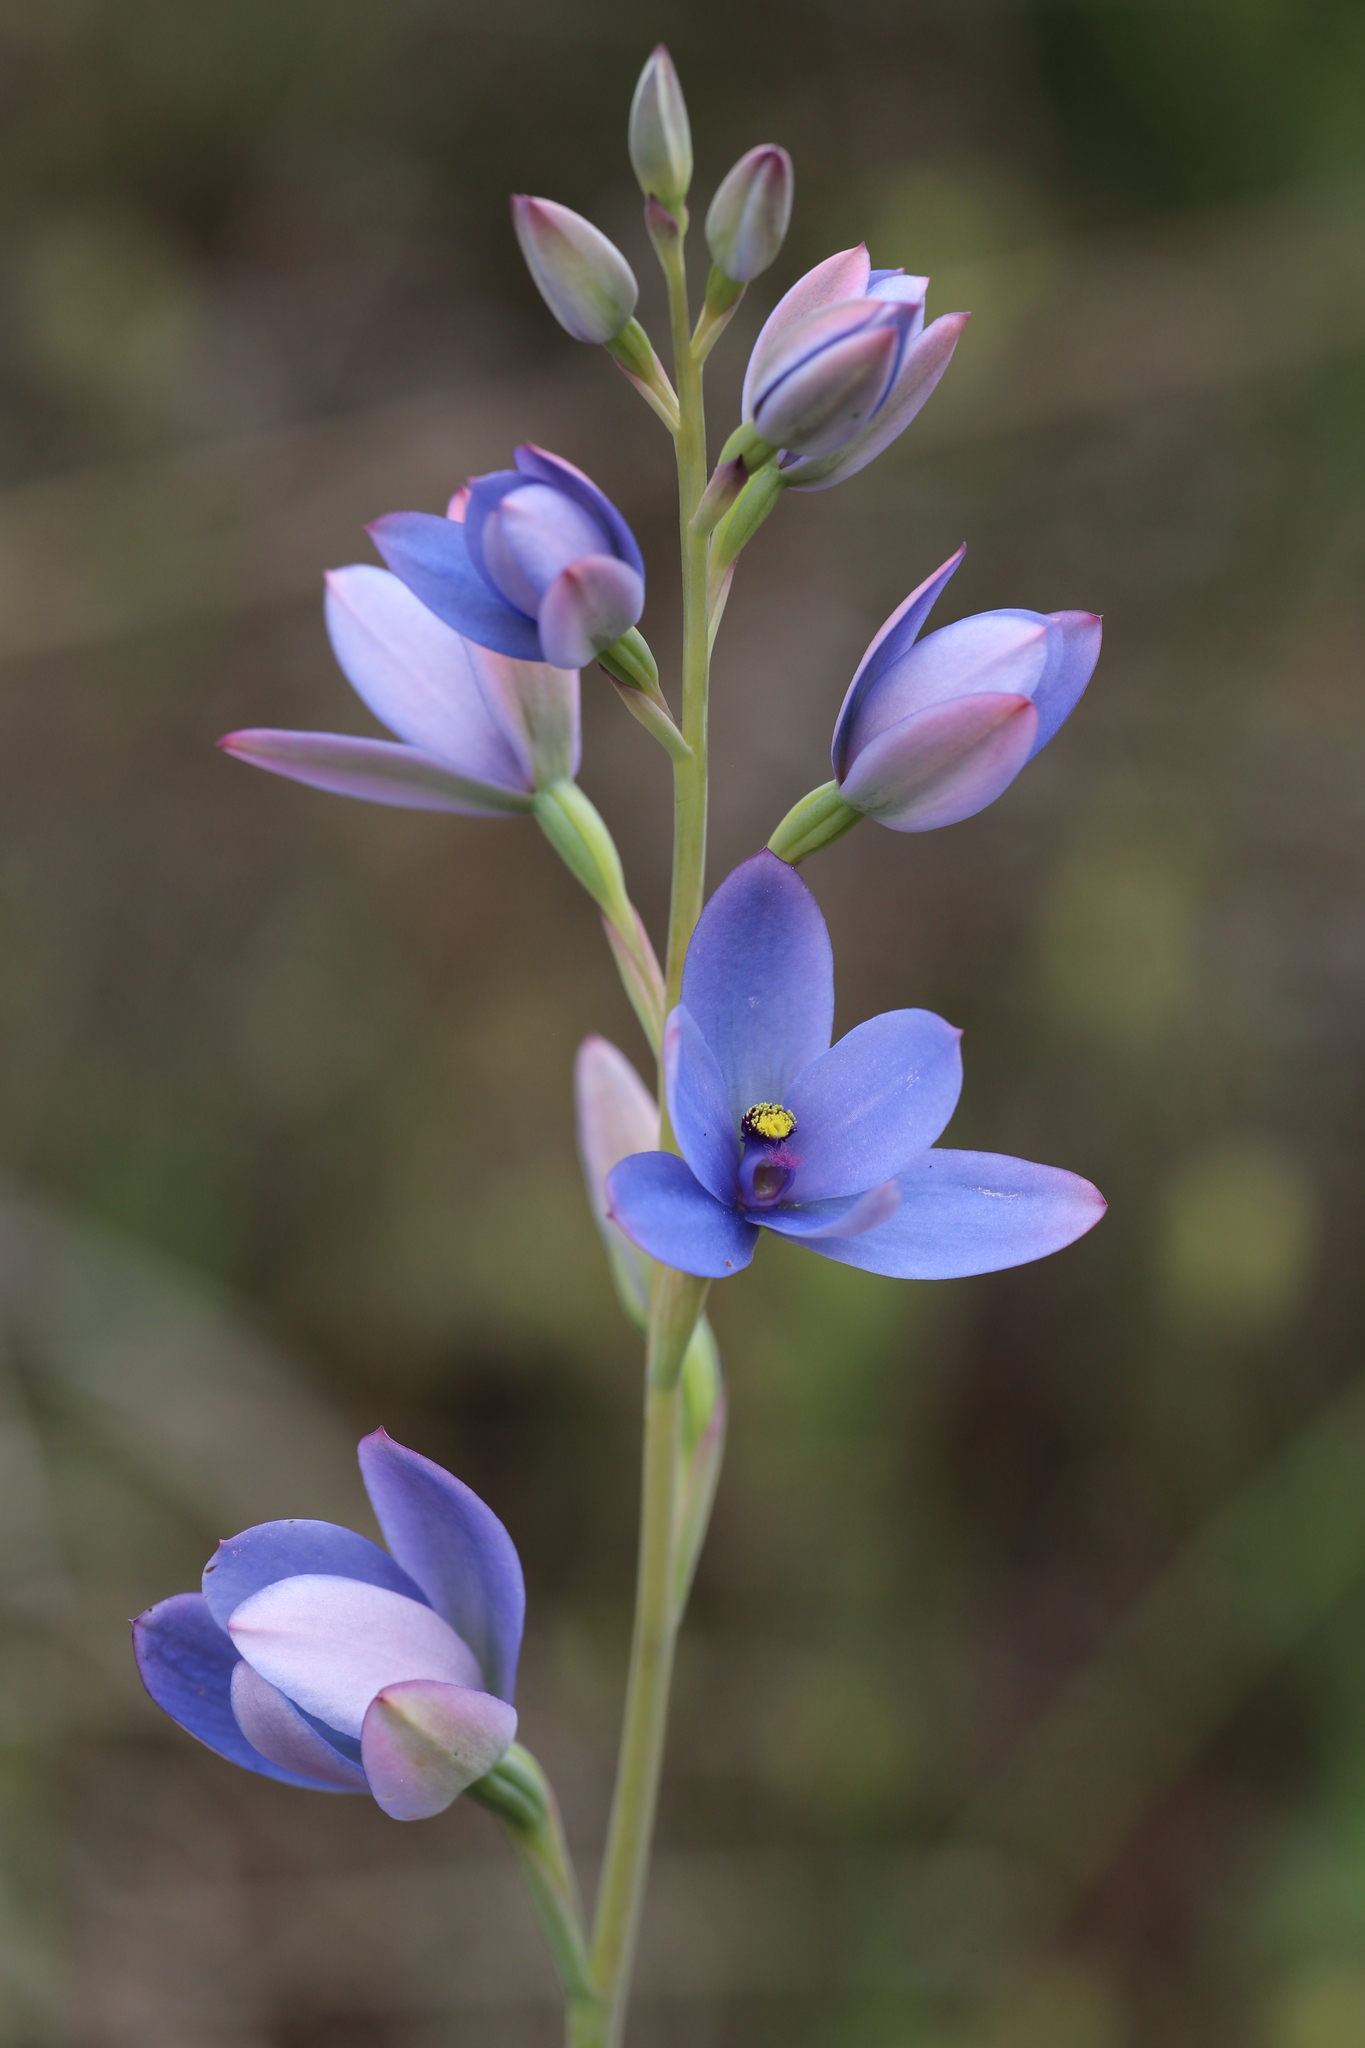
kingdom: Plantae
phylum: Tracheophyta
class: Liliopsida
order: Asparagales
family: Orchidaceae
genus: Thelymitra
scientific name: Thelymitra crinita
